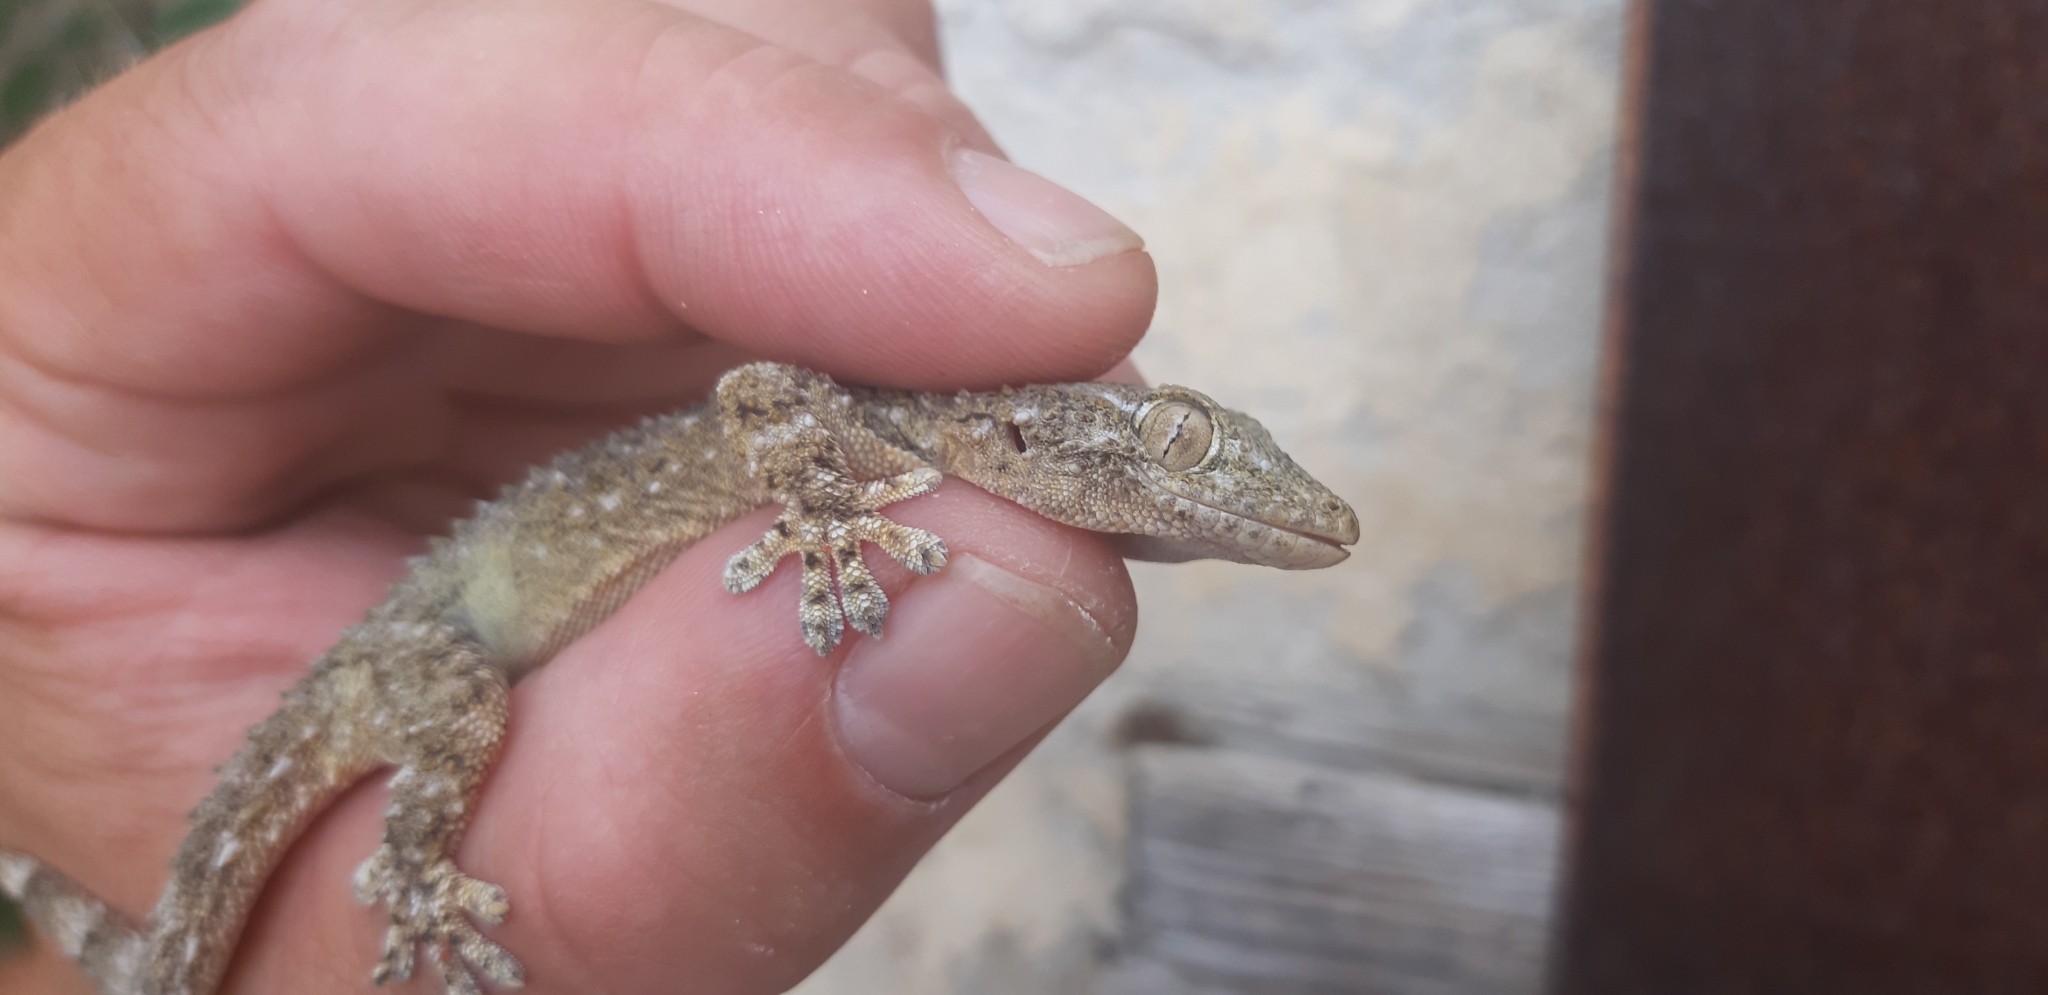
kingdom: Animalia
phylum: Chordata
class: Squamata
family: Phyllodactylidae
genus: Tarentola
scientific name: Tarentola mauritanica
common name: Moorish gecko
